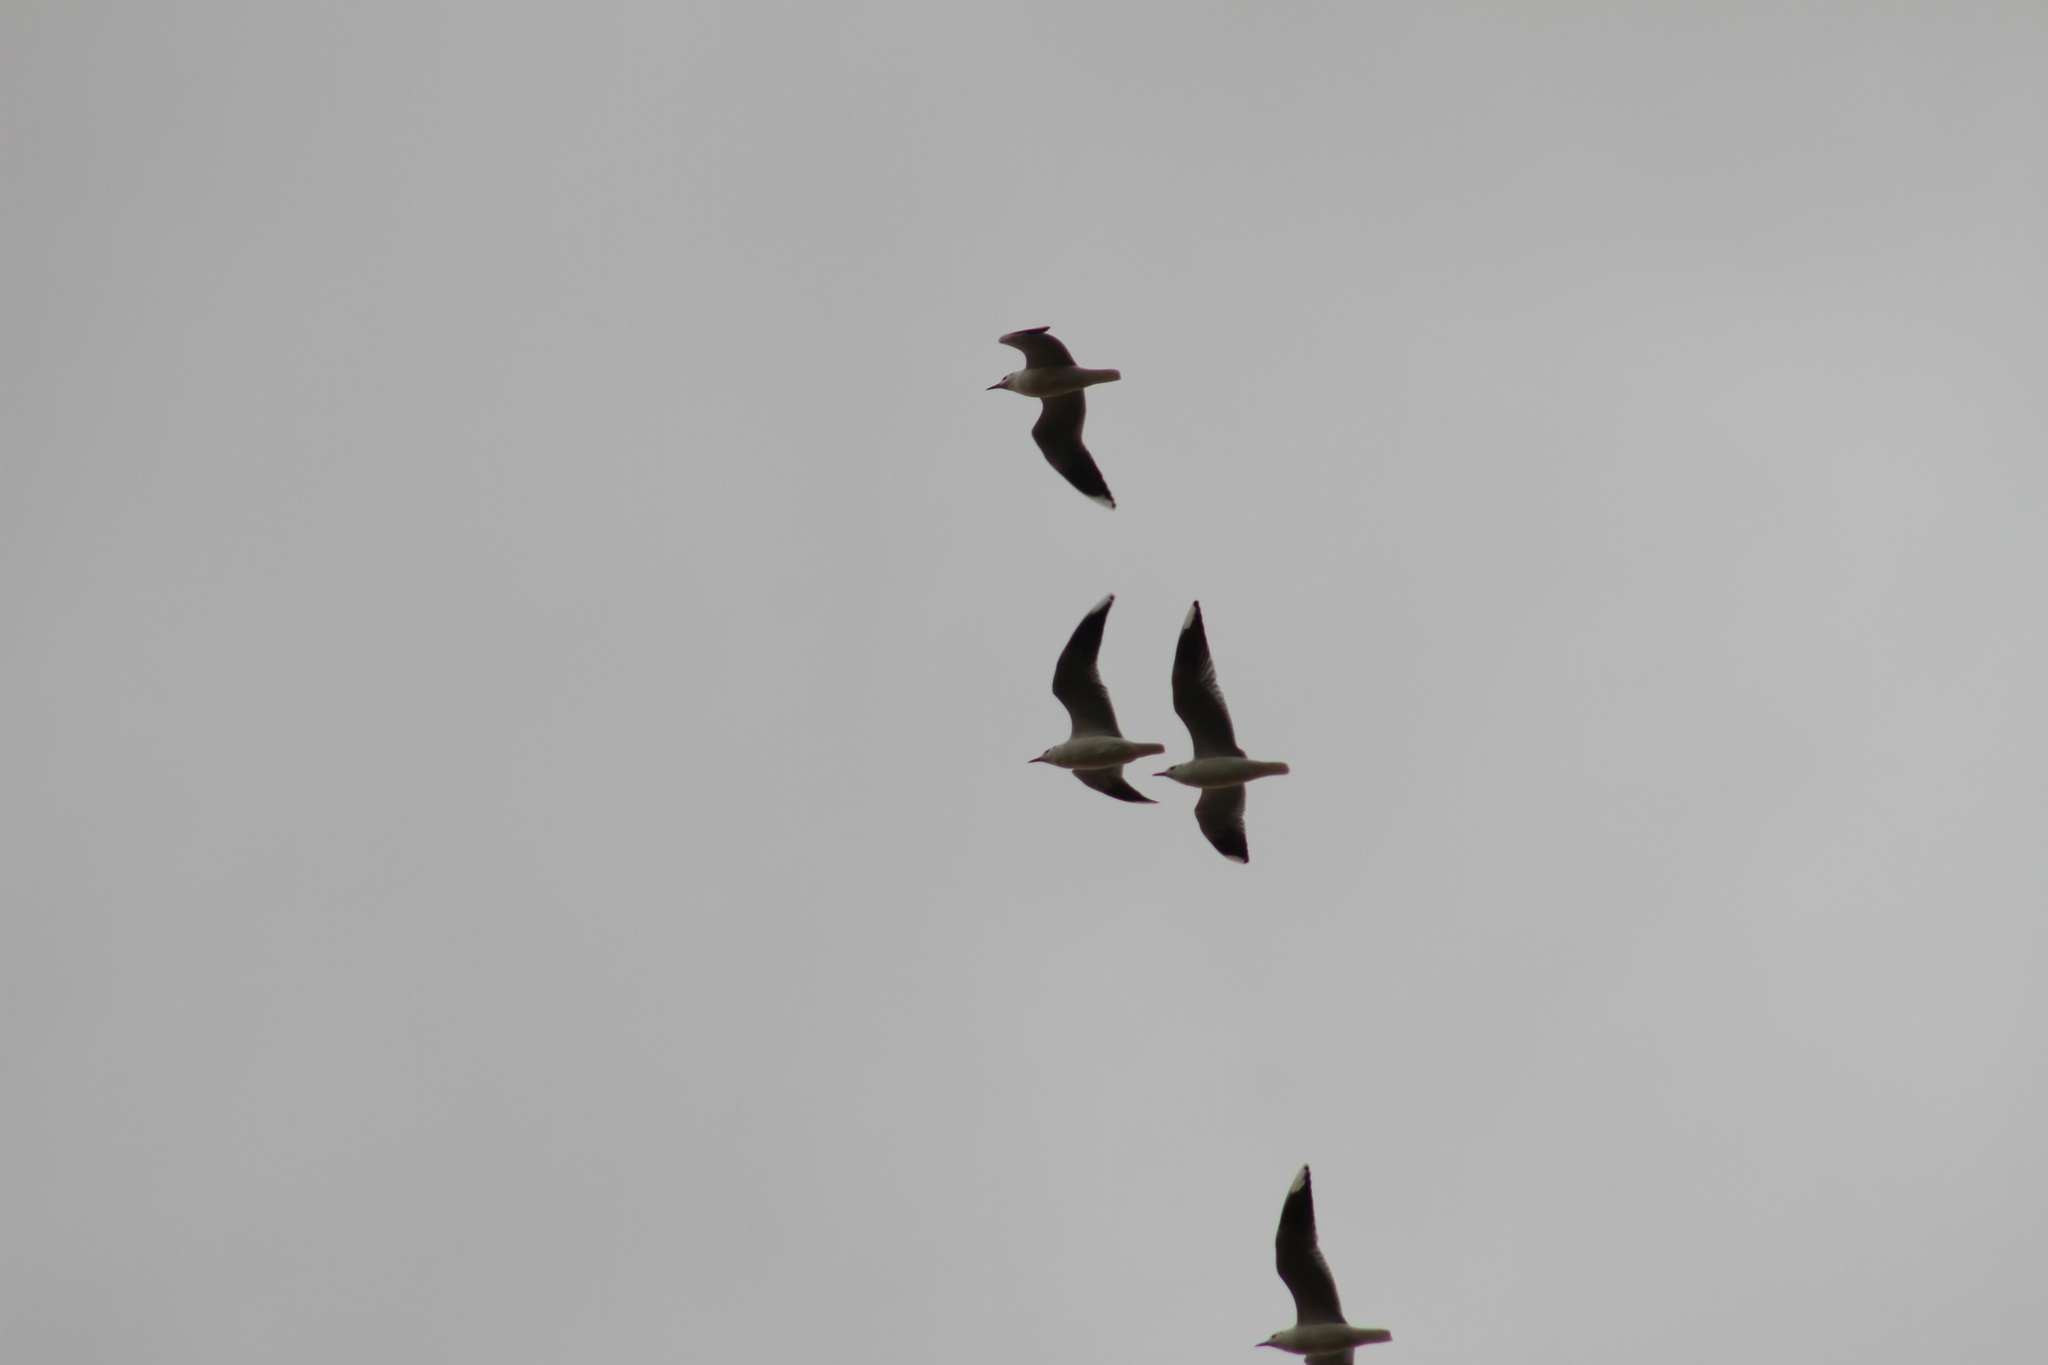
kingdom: Animalia
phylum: Chordata
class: Aves
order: Charadriiformes
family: Laridae
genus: Chroicocephalus
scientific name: Chroicocephalus maculipennis
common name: Brown-hooded gull
